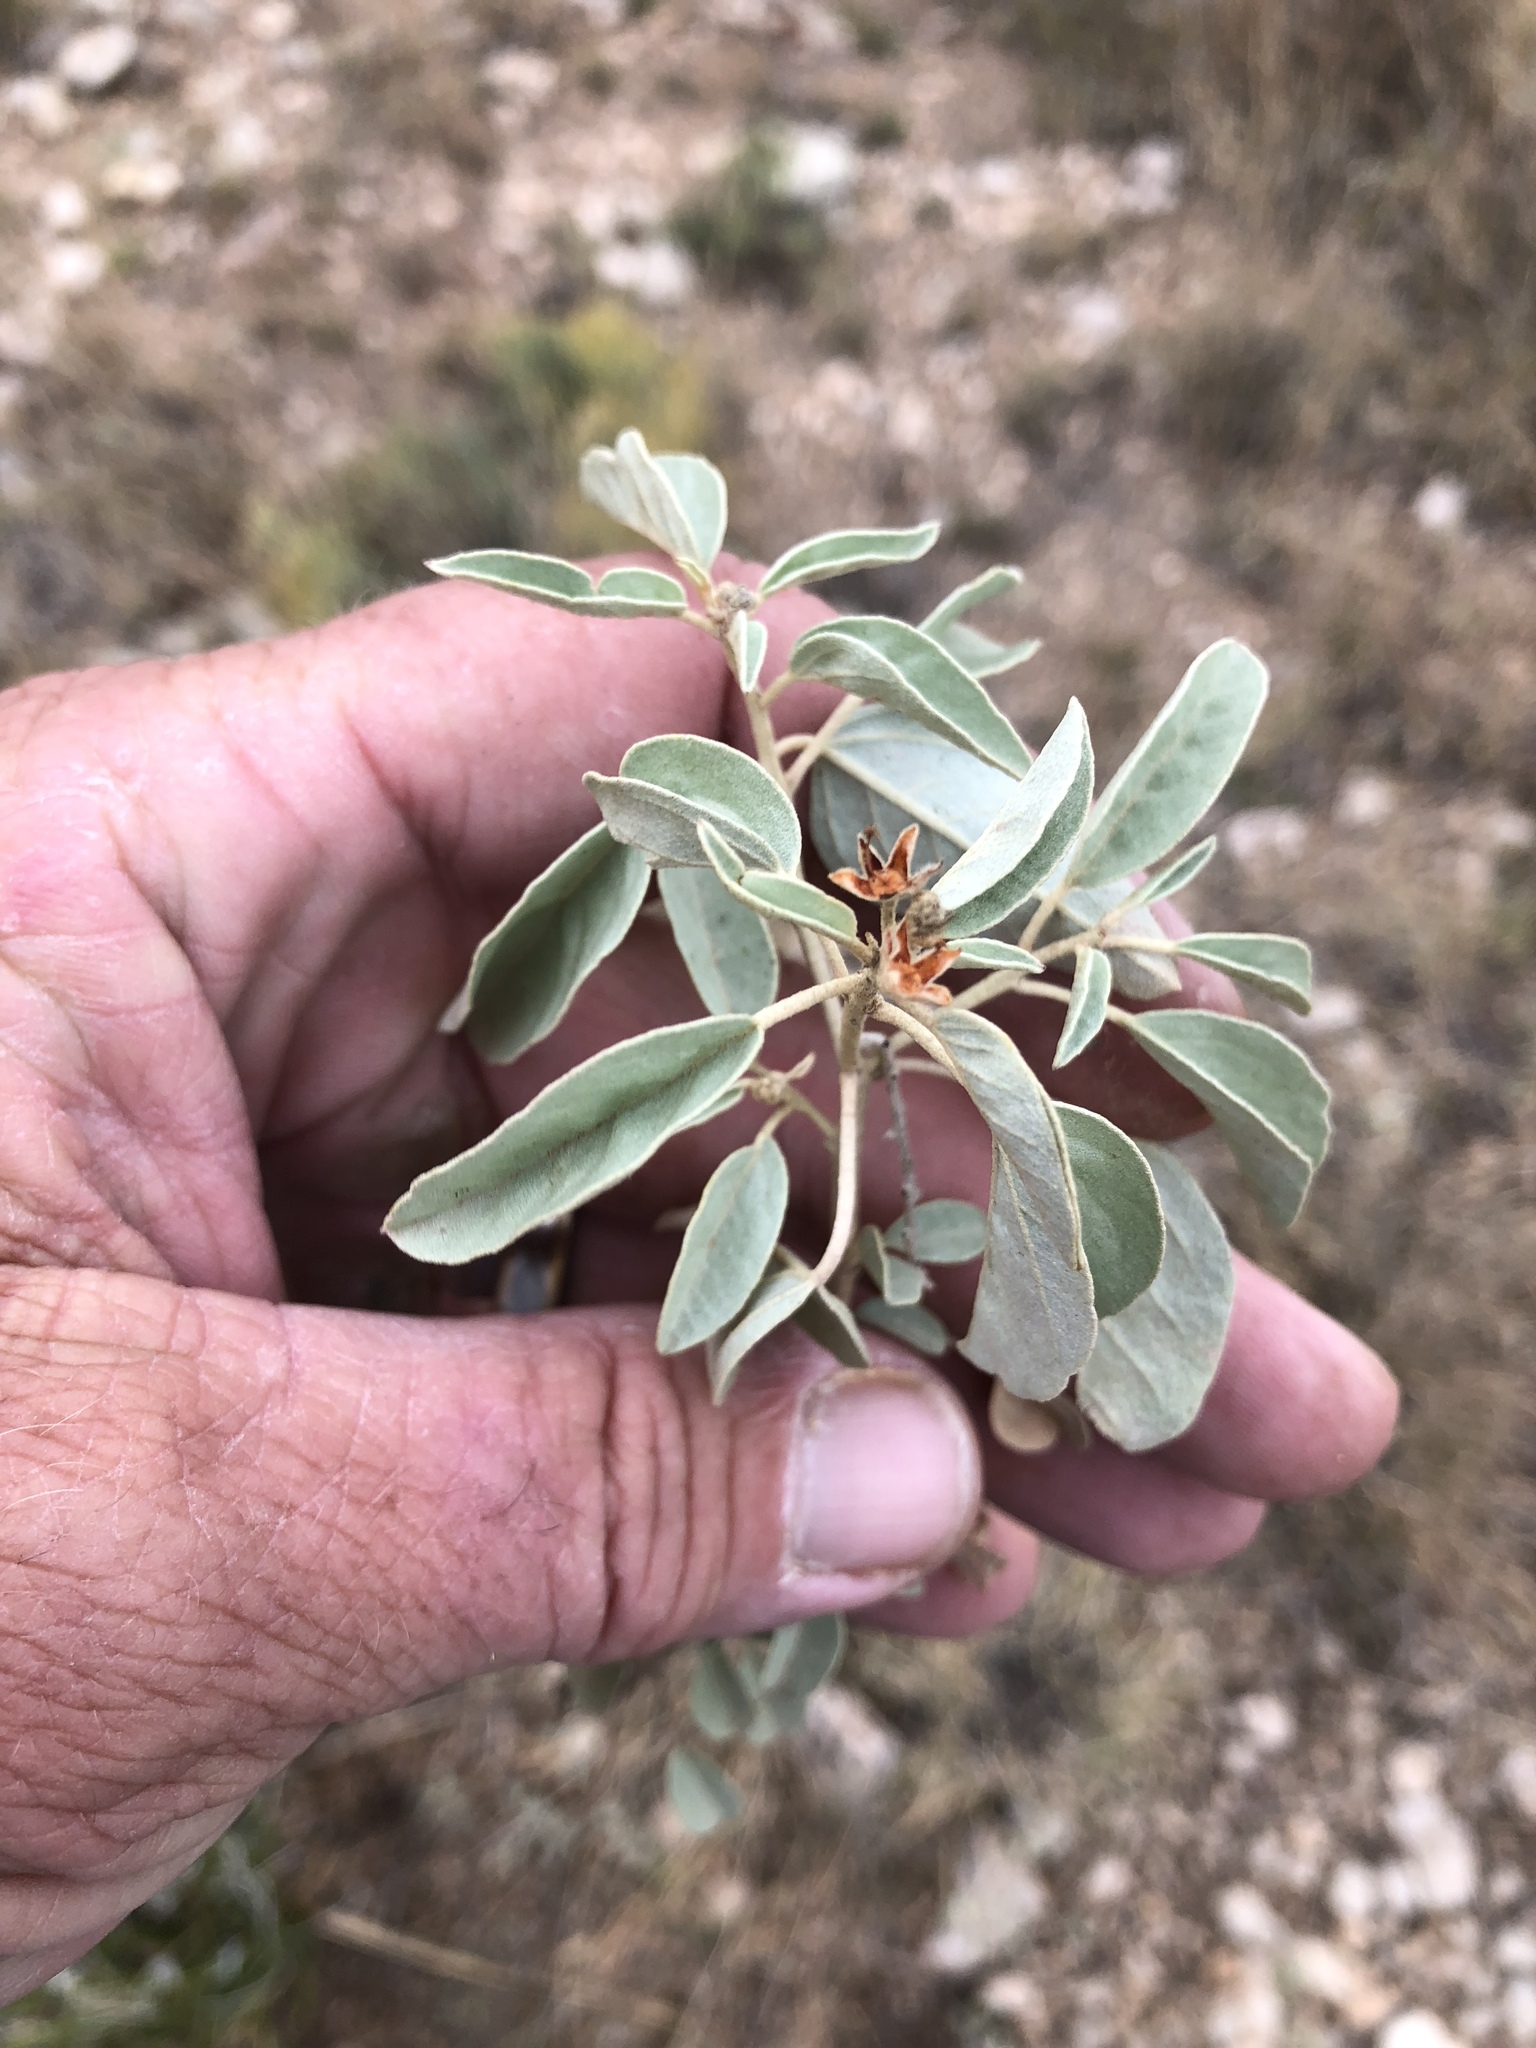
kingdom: Plantae
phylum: Tracheophyta
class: Magnoliopsida
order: Malpighiales
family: Euphorbiaceae
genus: Croton
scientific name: Croton pottsii
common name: Leatherweed
